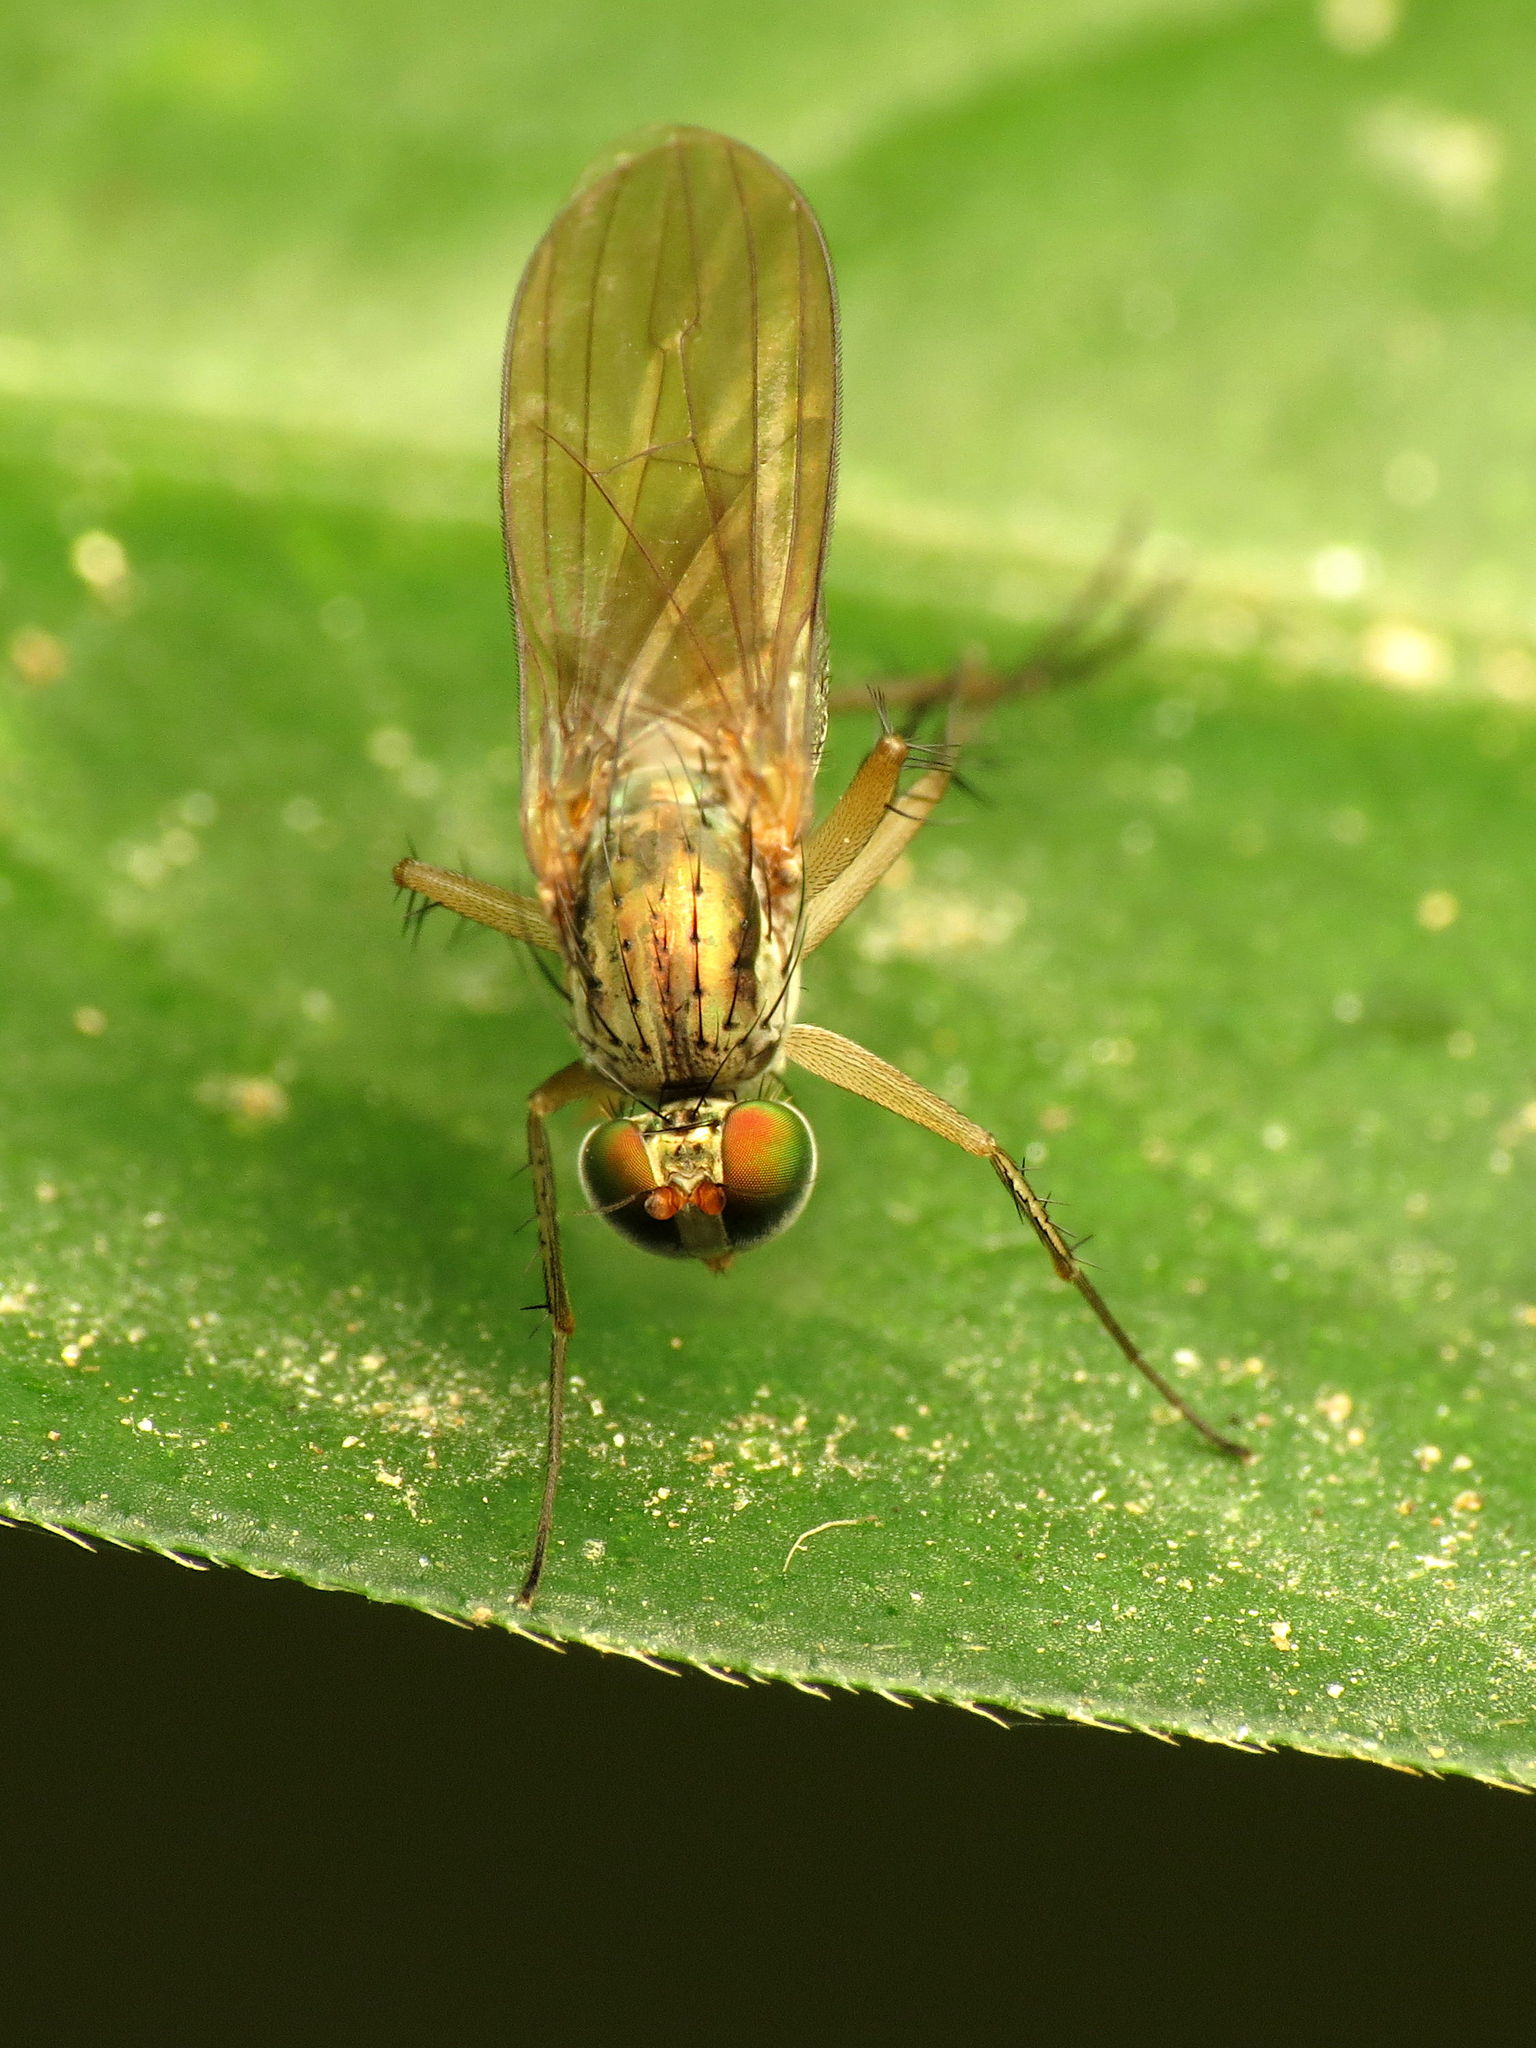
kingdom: Animalia
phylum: Arthropoda
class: Insecta
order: Diptera
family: Dolichopodidae
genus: Dolichopus
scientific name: Dolichopus scapularis
